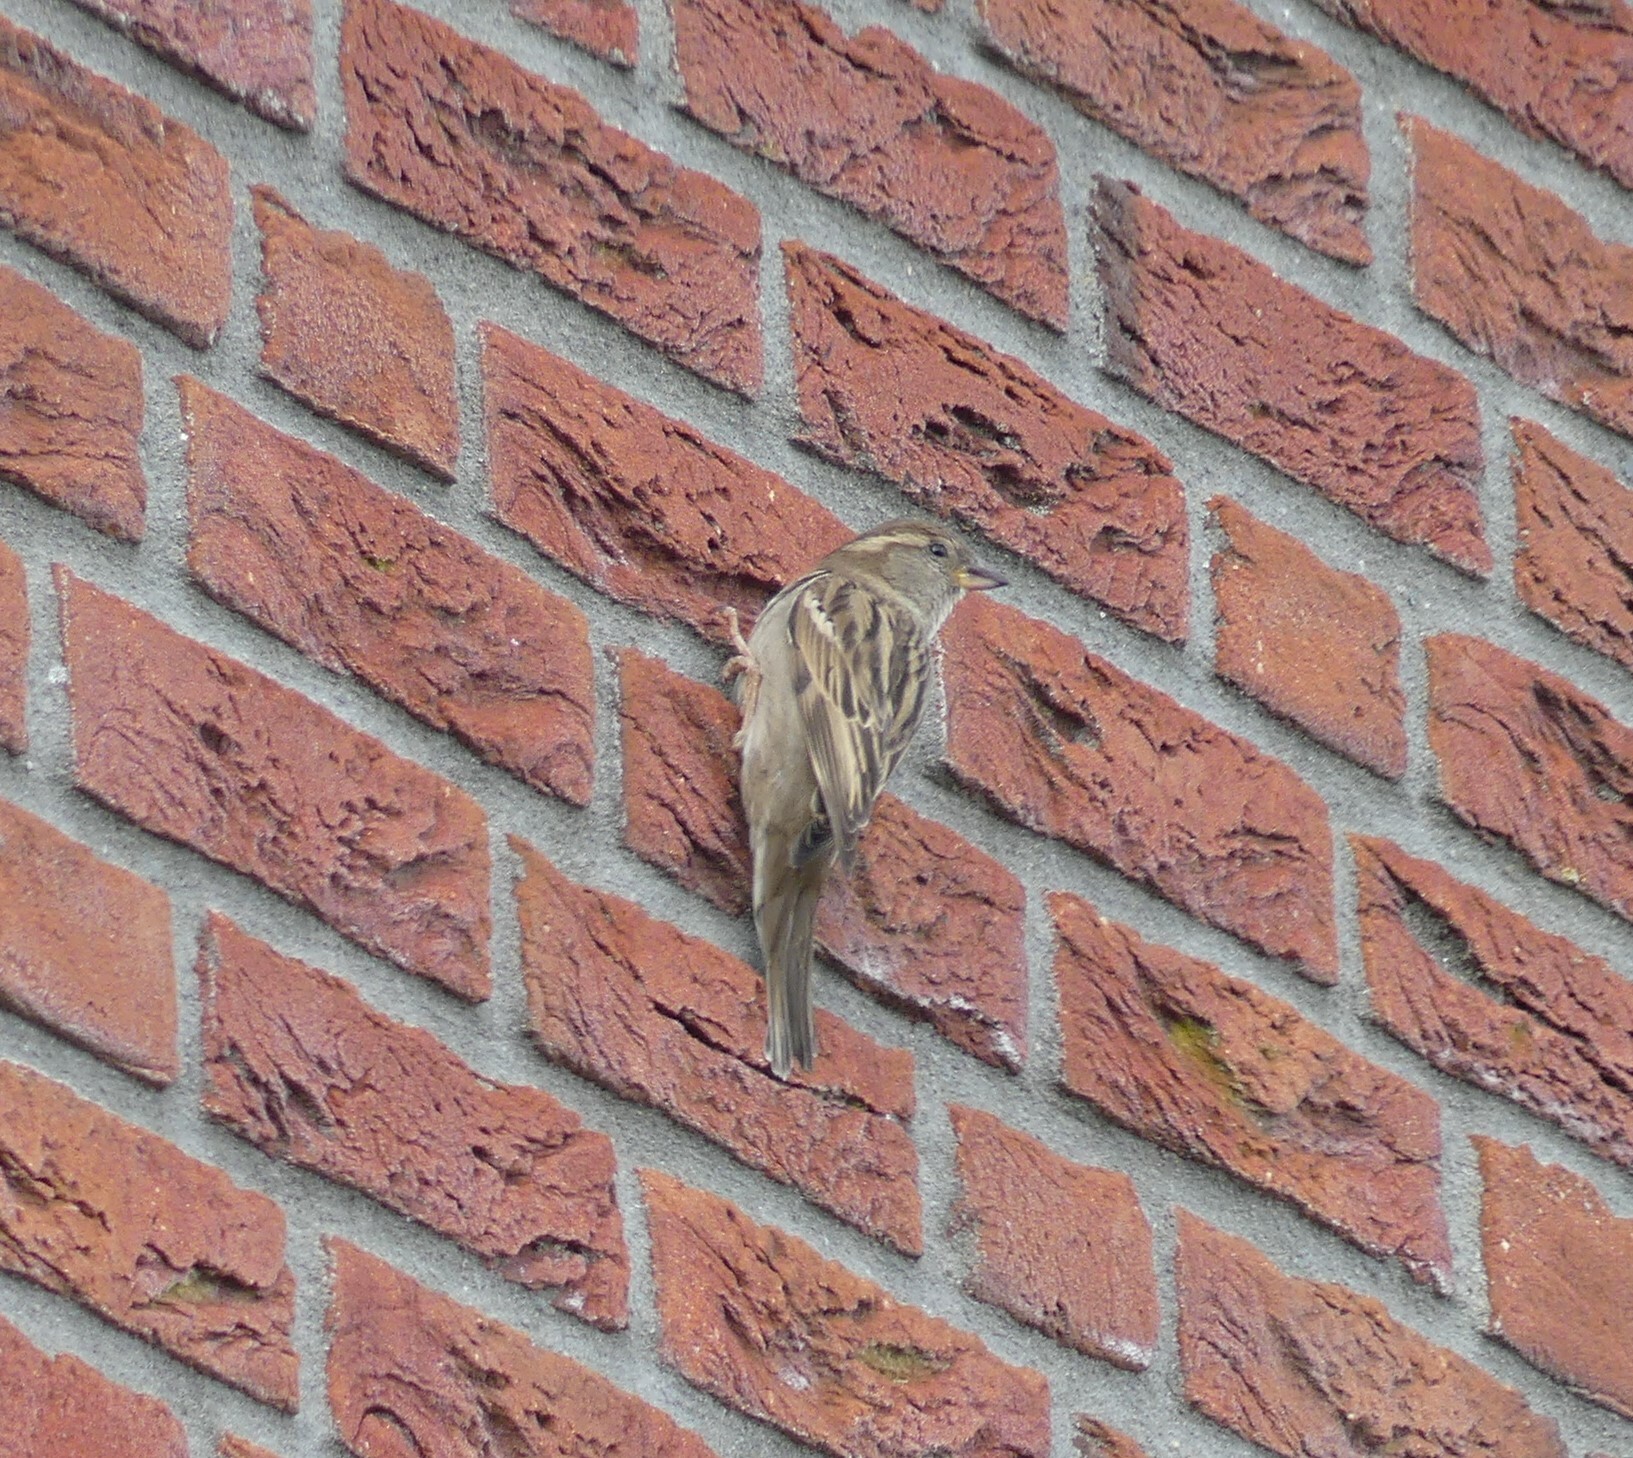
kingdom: Animalia
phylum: Chordata
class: Aves
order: Passeriformes
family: Passeridae
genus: Passer
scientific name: Passer domesticus
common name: House sparrow
